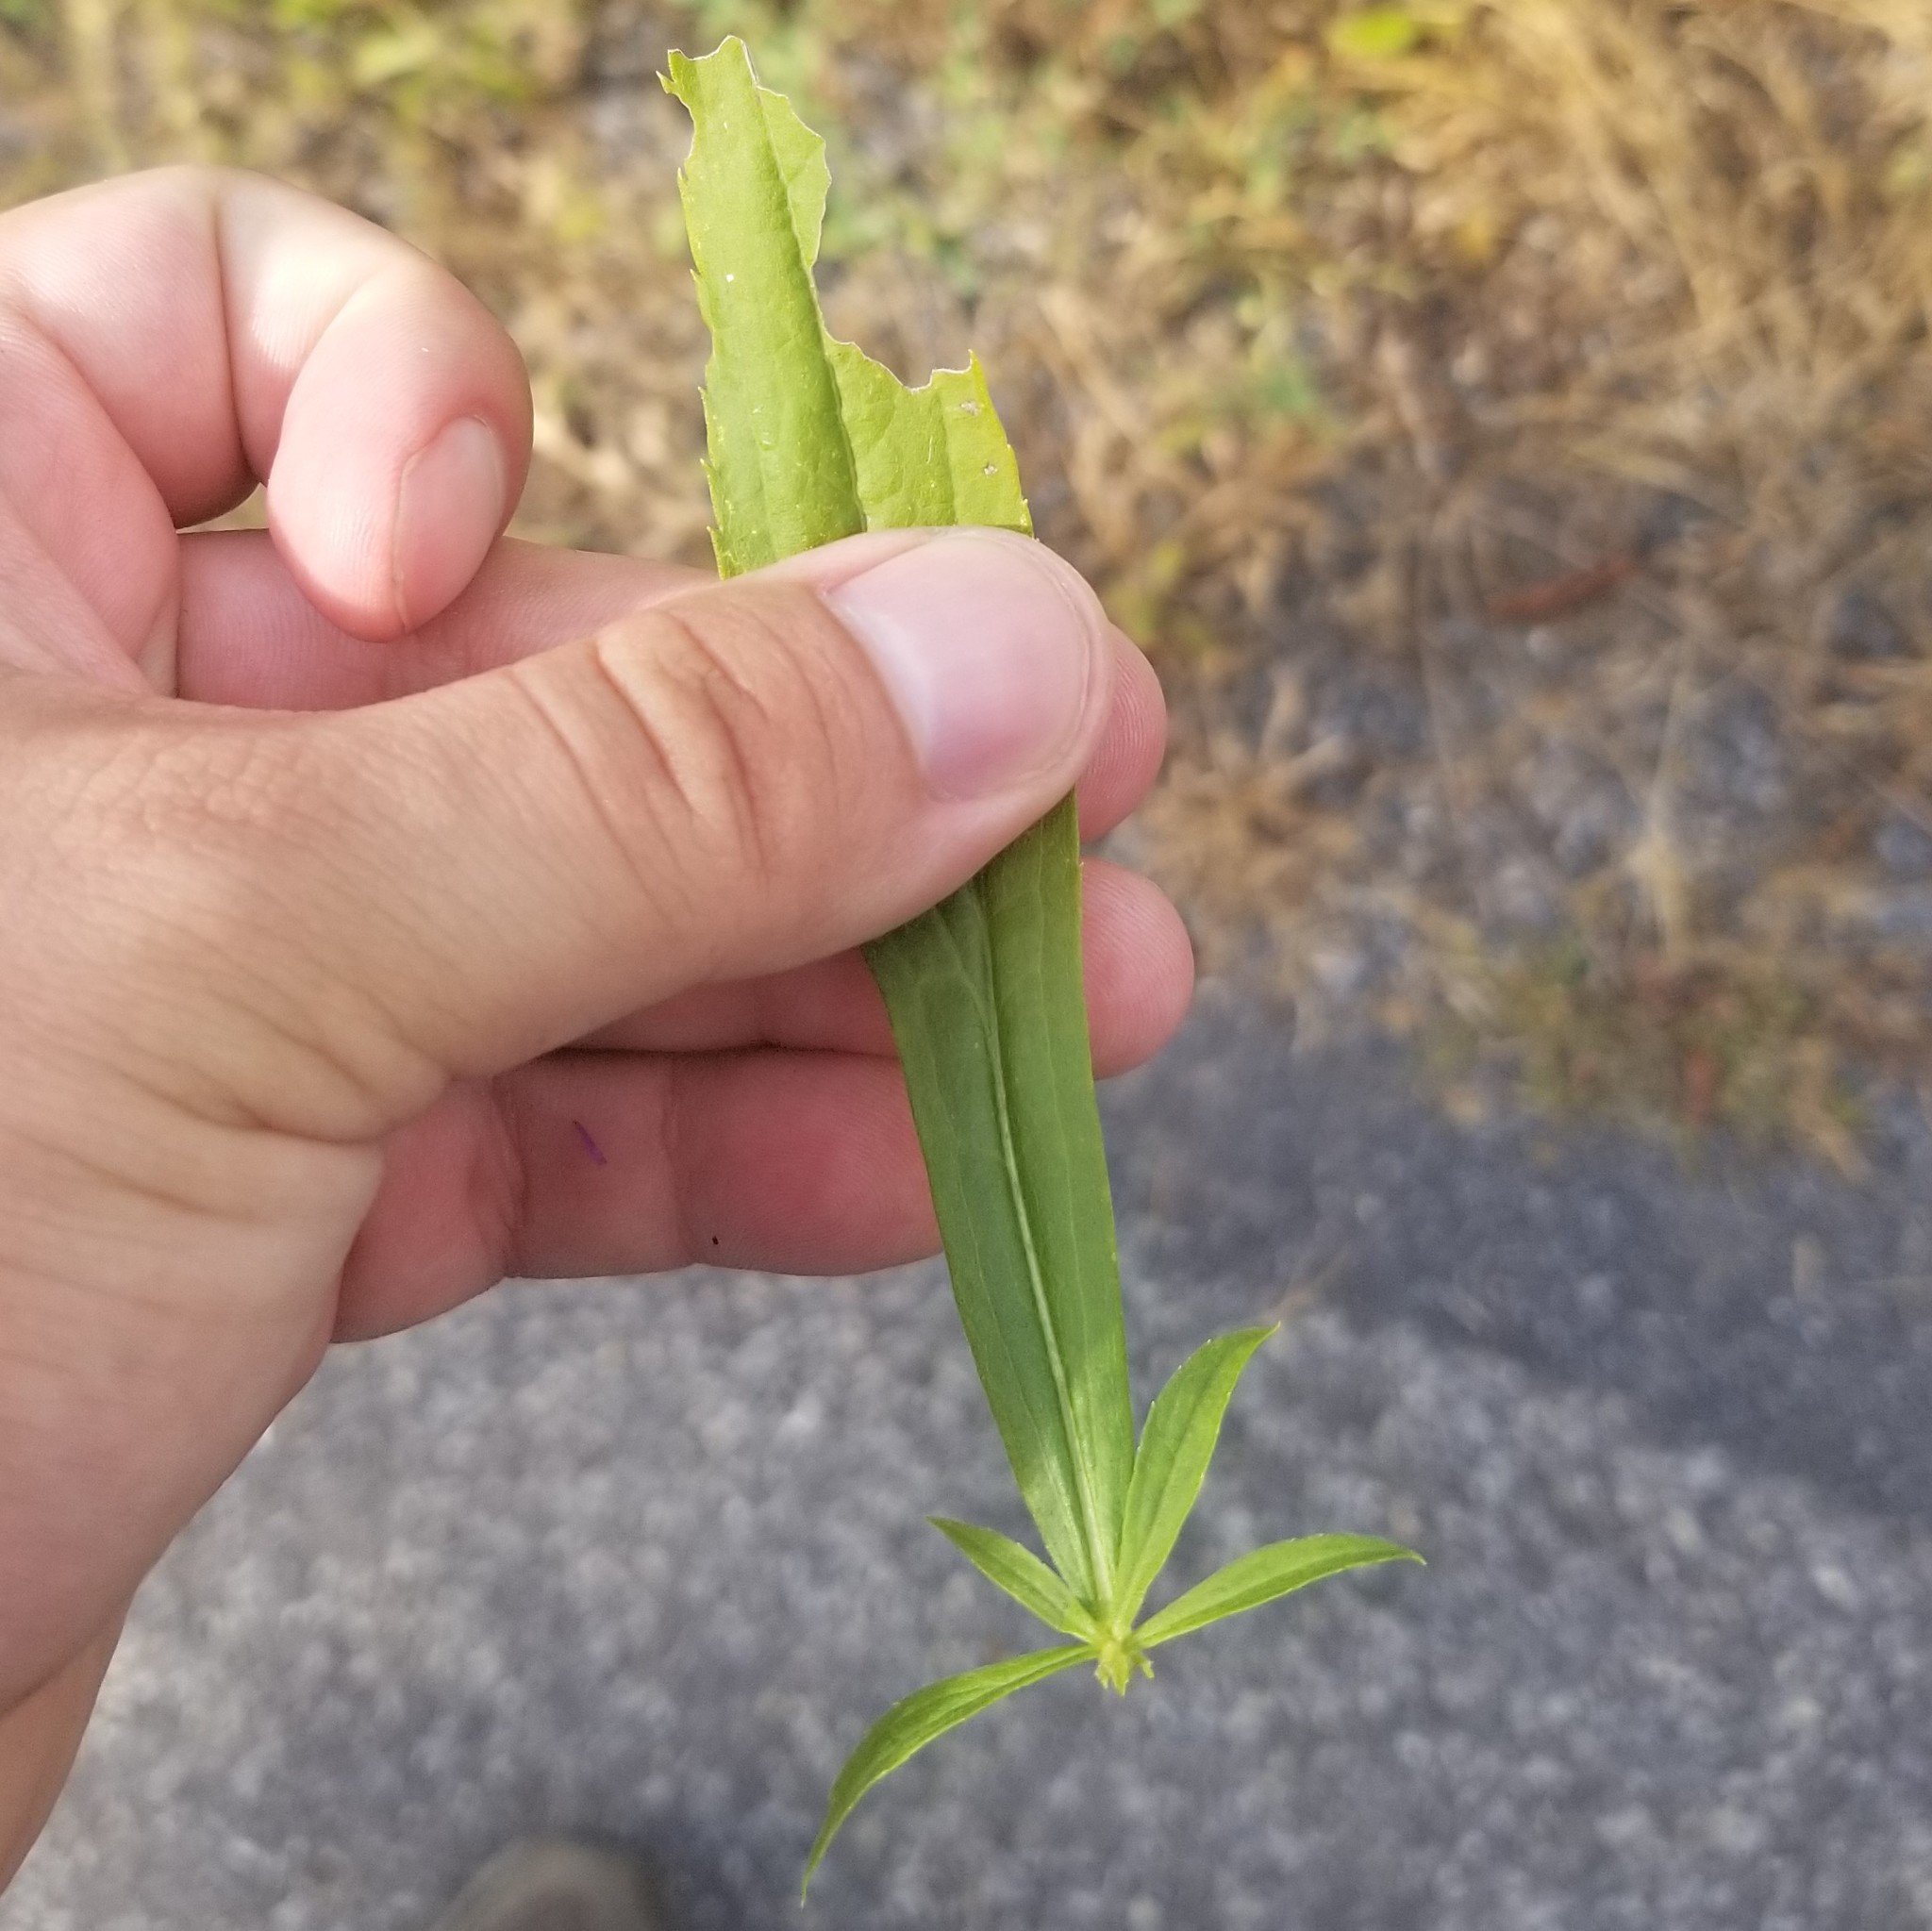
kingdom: Plantae
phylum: Tracheophyta
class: Magnoliopsida
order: Asterales
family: Asteraceae
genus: Solidago
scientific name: Solidago altissima
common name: Late goldenrod
